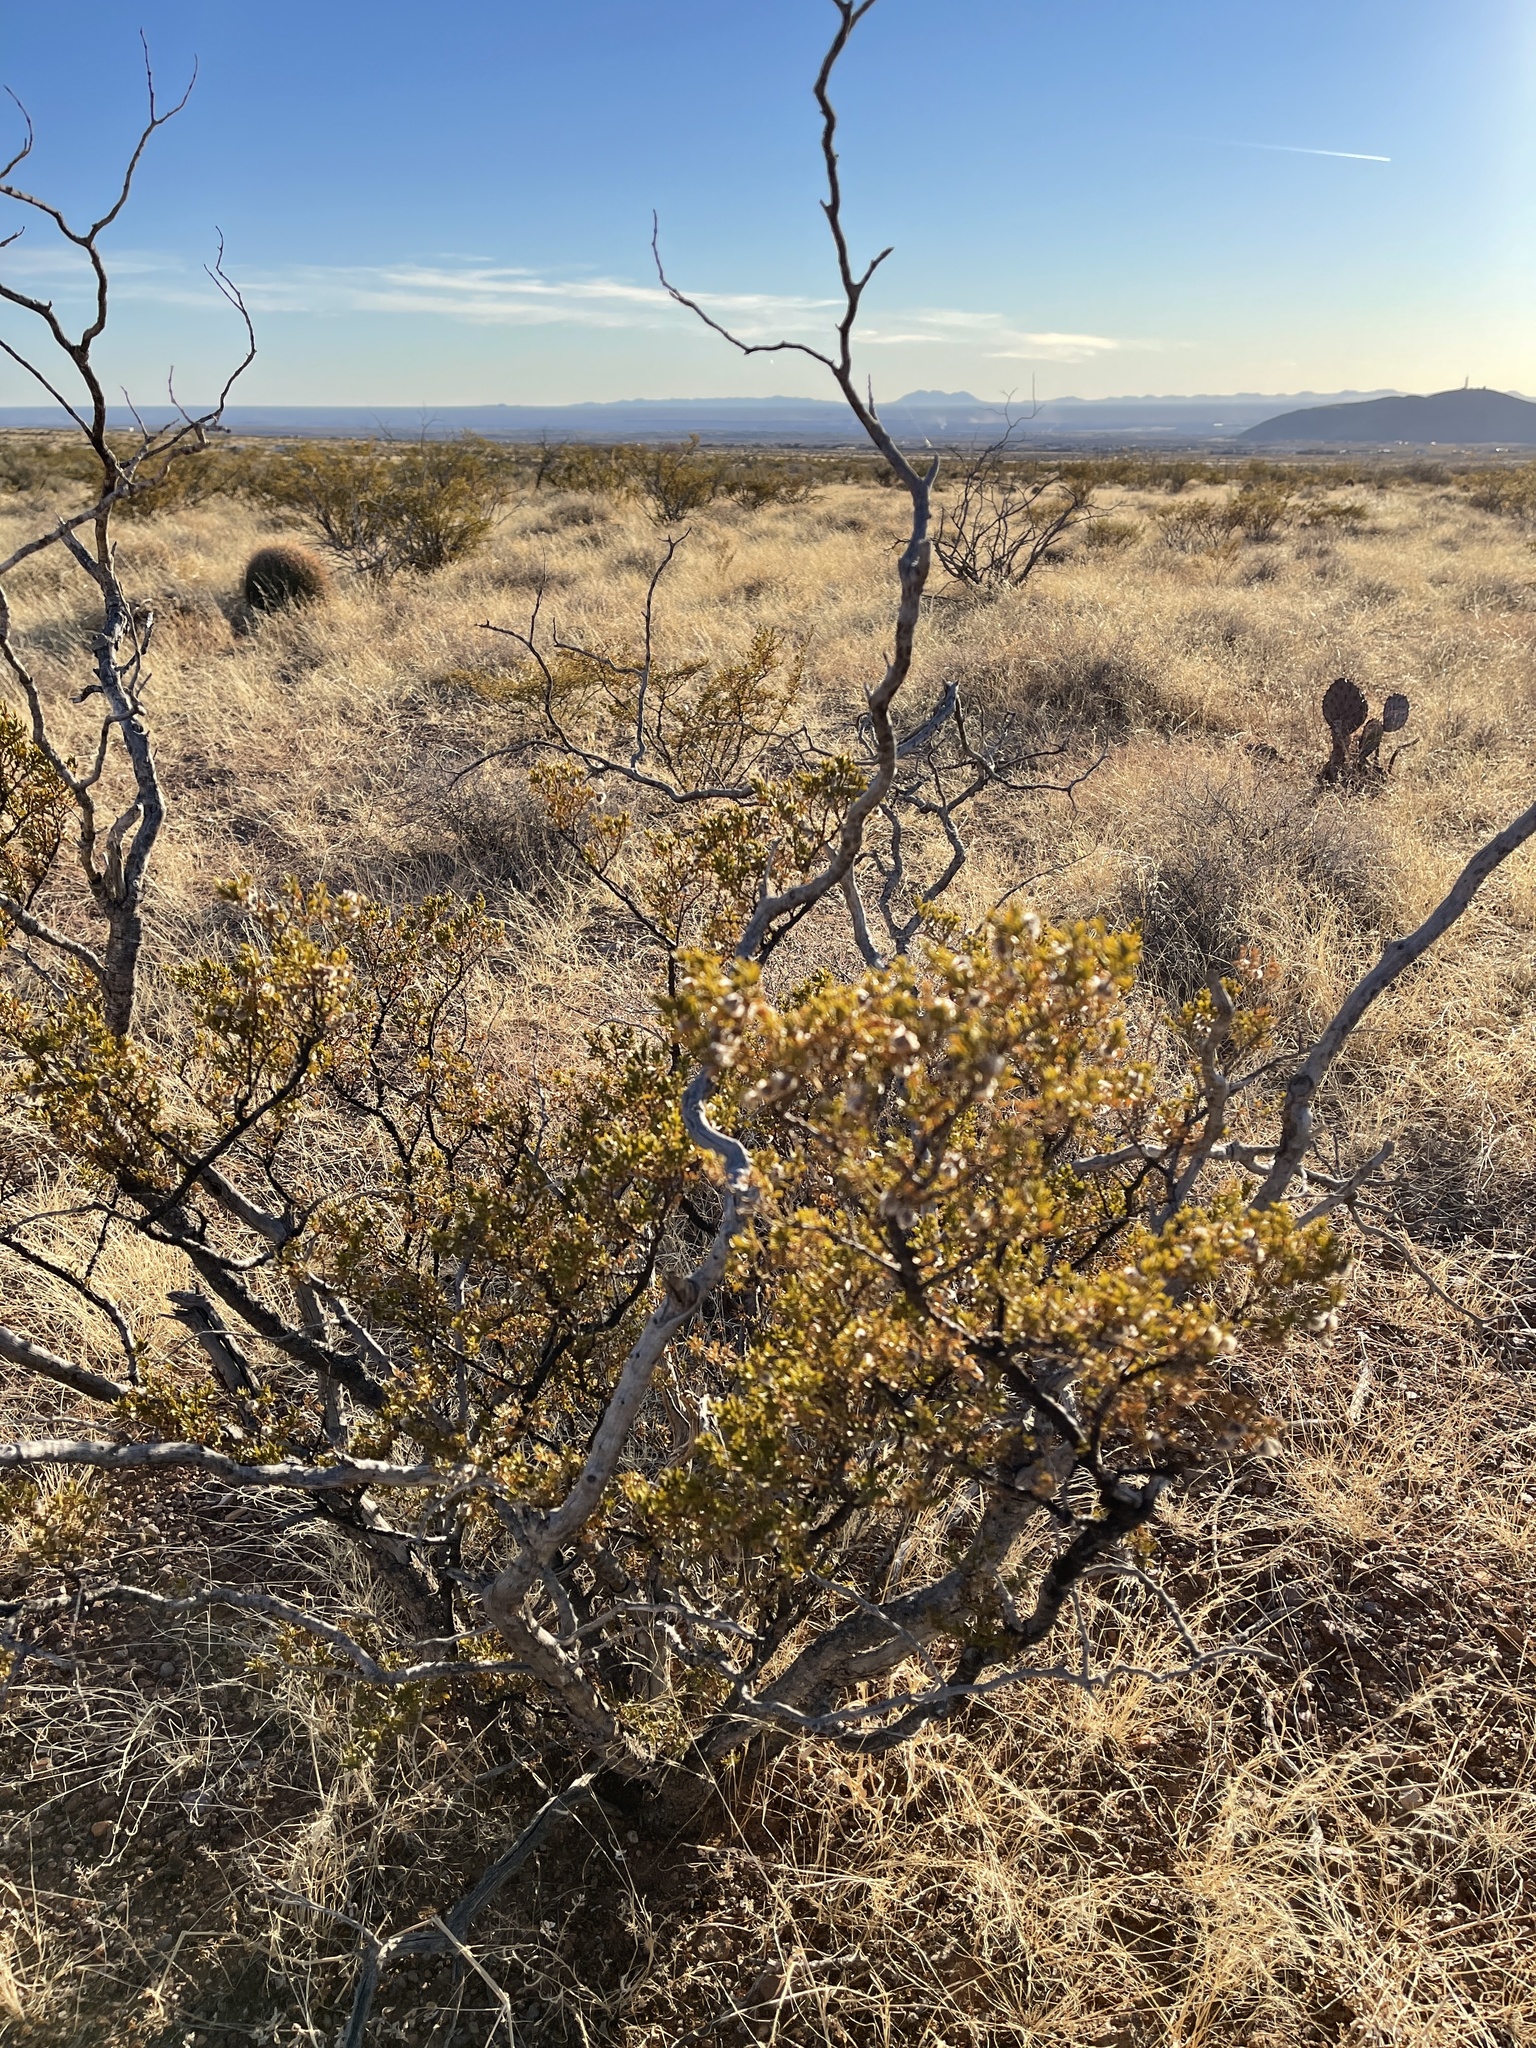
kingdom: Plantae
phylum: Tracheophyta
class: Magnoliopsida
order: Zygophyllales
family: Zygophyllaceae
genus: Larrea
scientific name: Larrea tridentata
